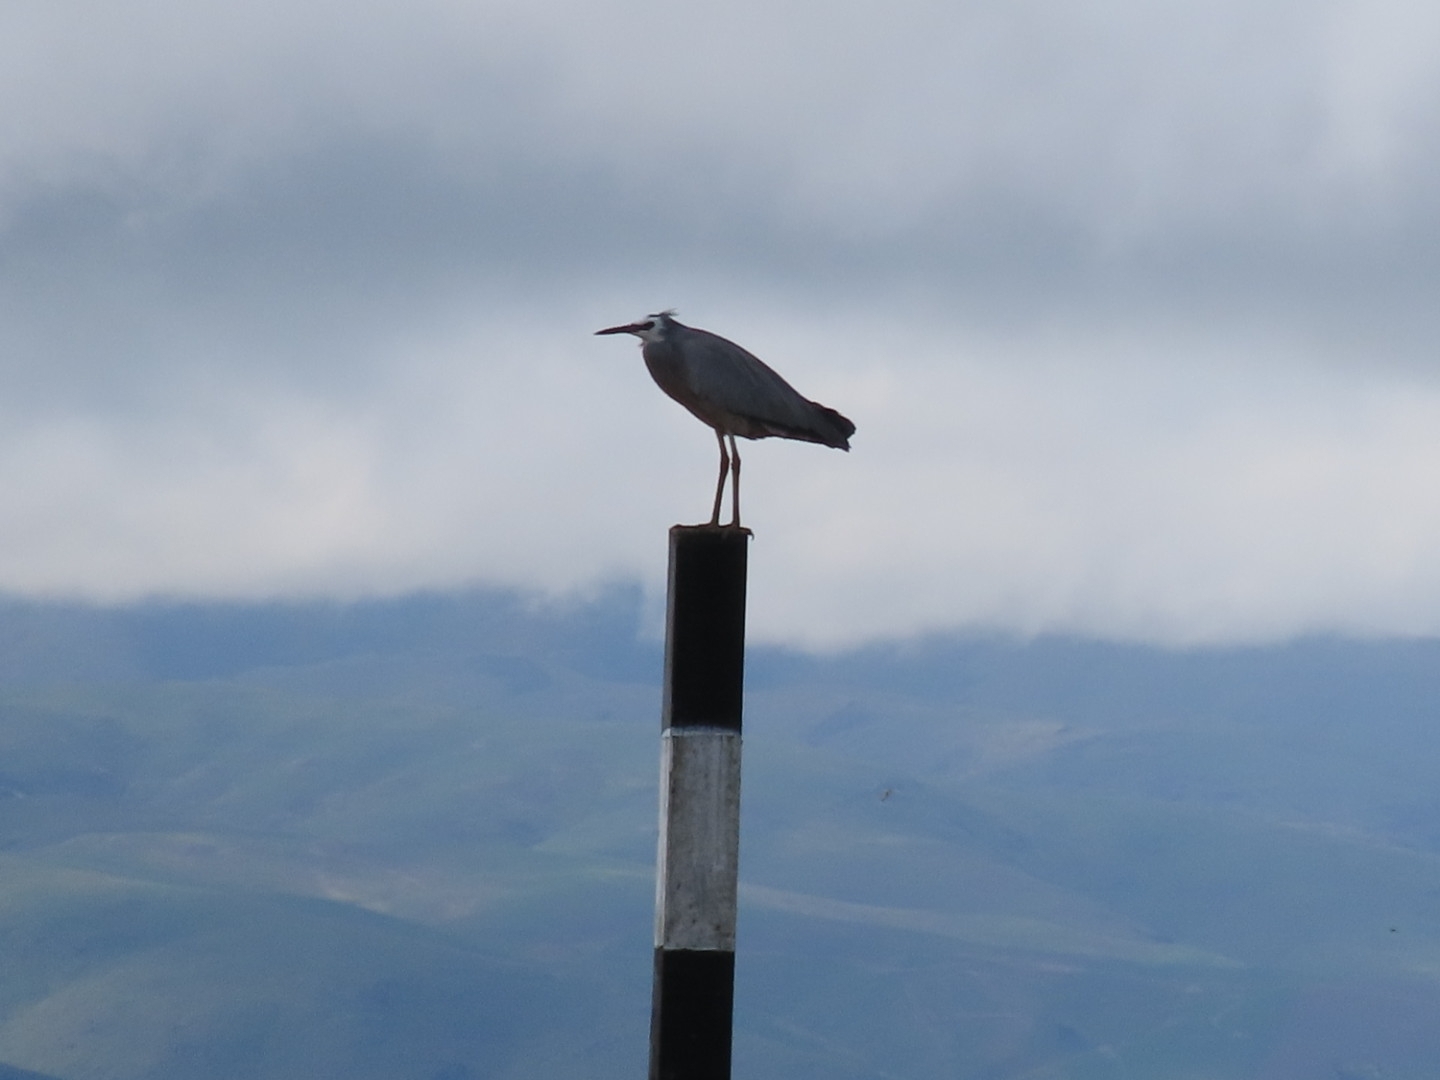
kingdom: Animalia
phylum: Chordata
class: Aves
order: Pelecaniformes
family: Ardeidae
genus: Egretta
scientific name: Egretta novaehollandiae
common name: White-faced heron
